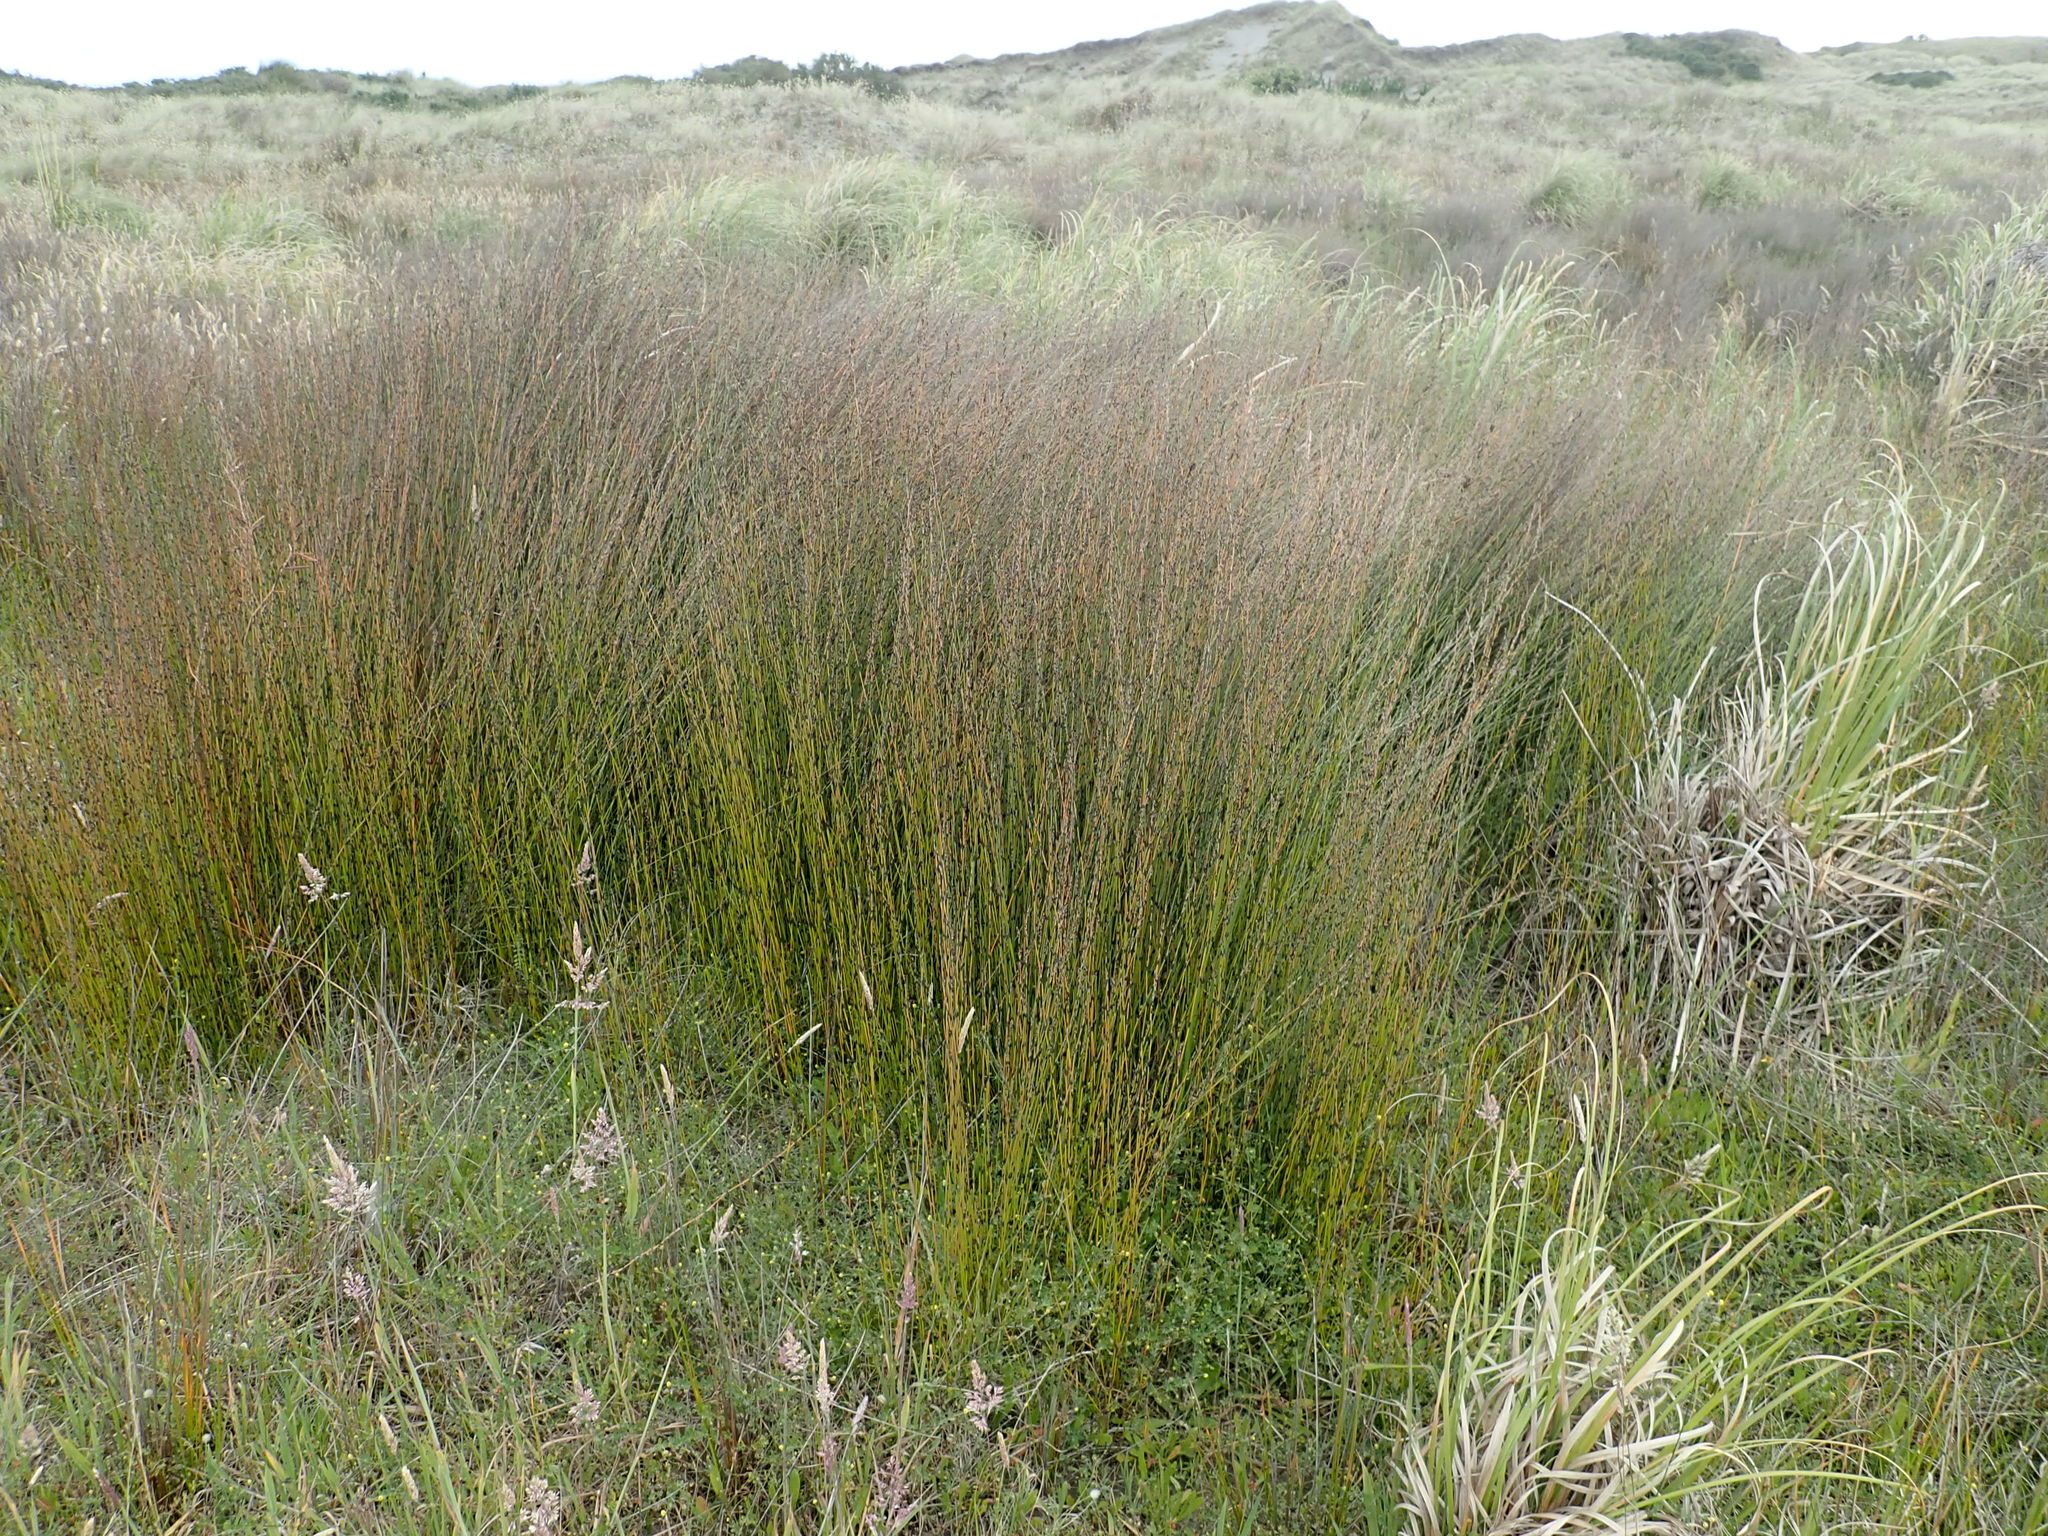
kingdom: Plantae
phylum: Tracheophyta
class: Liliopsida
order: Poales
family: Restionaceae
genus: Apodasmia
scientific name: Apodasmia similis
